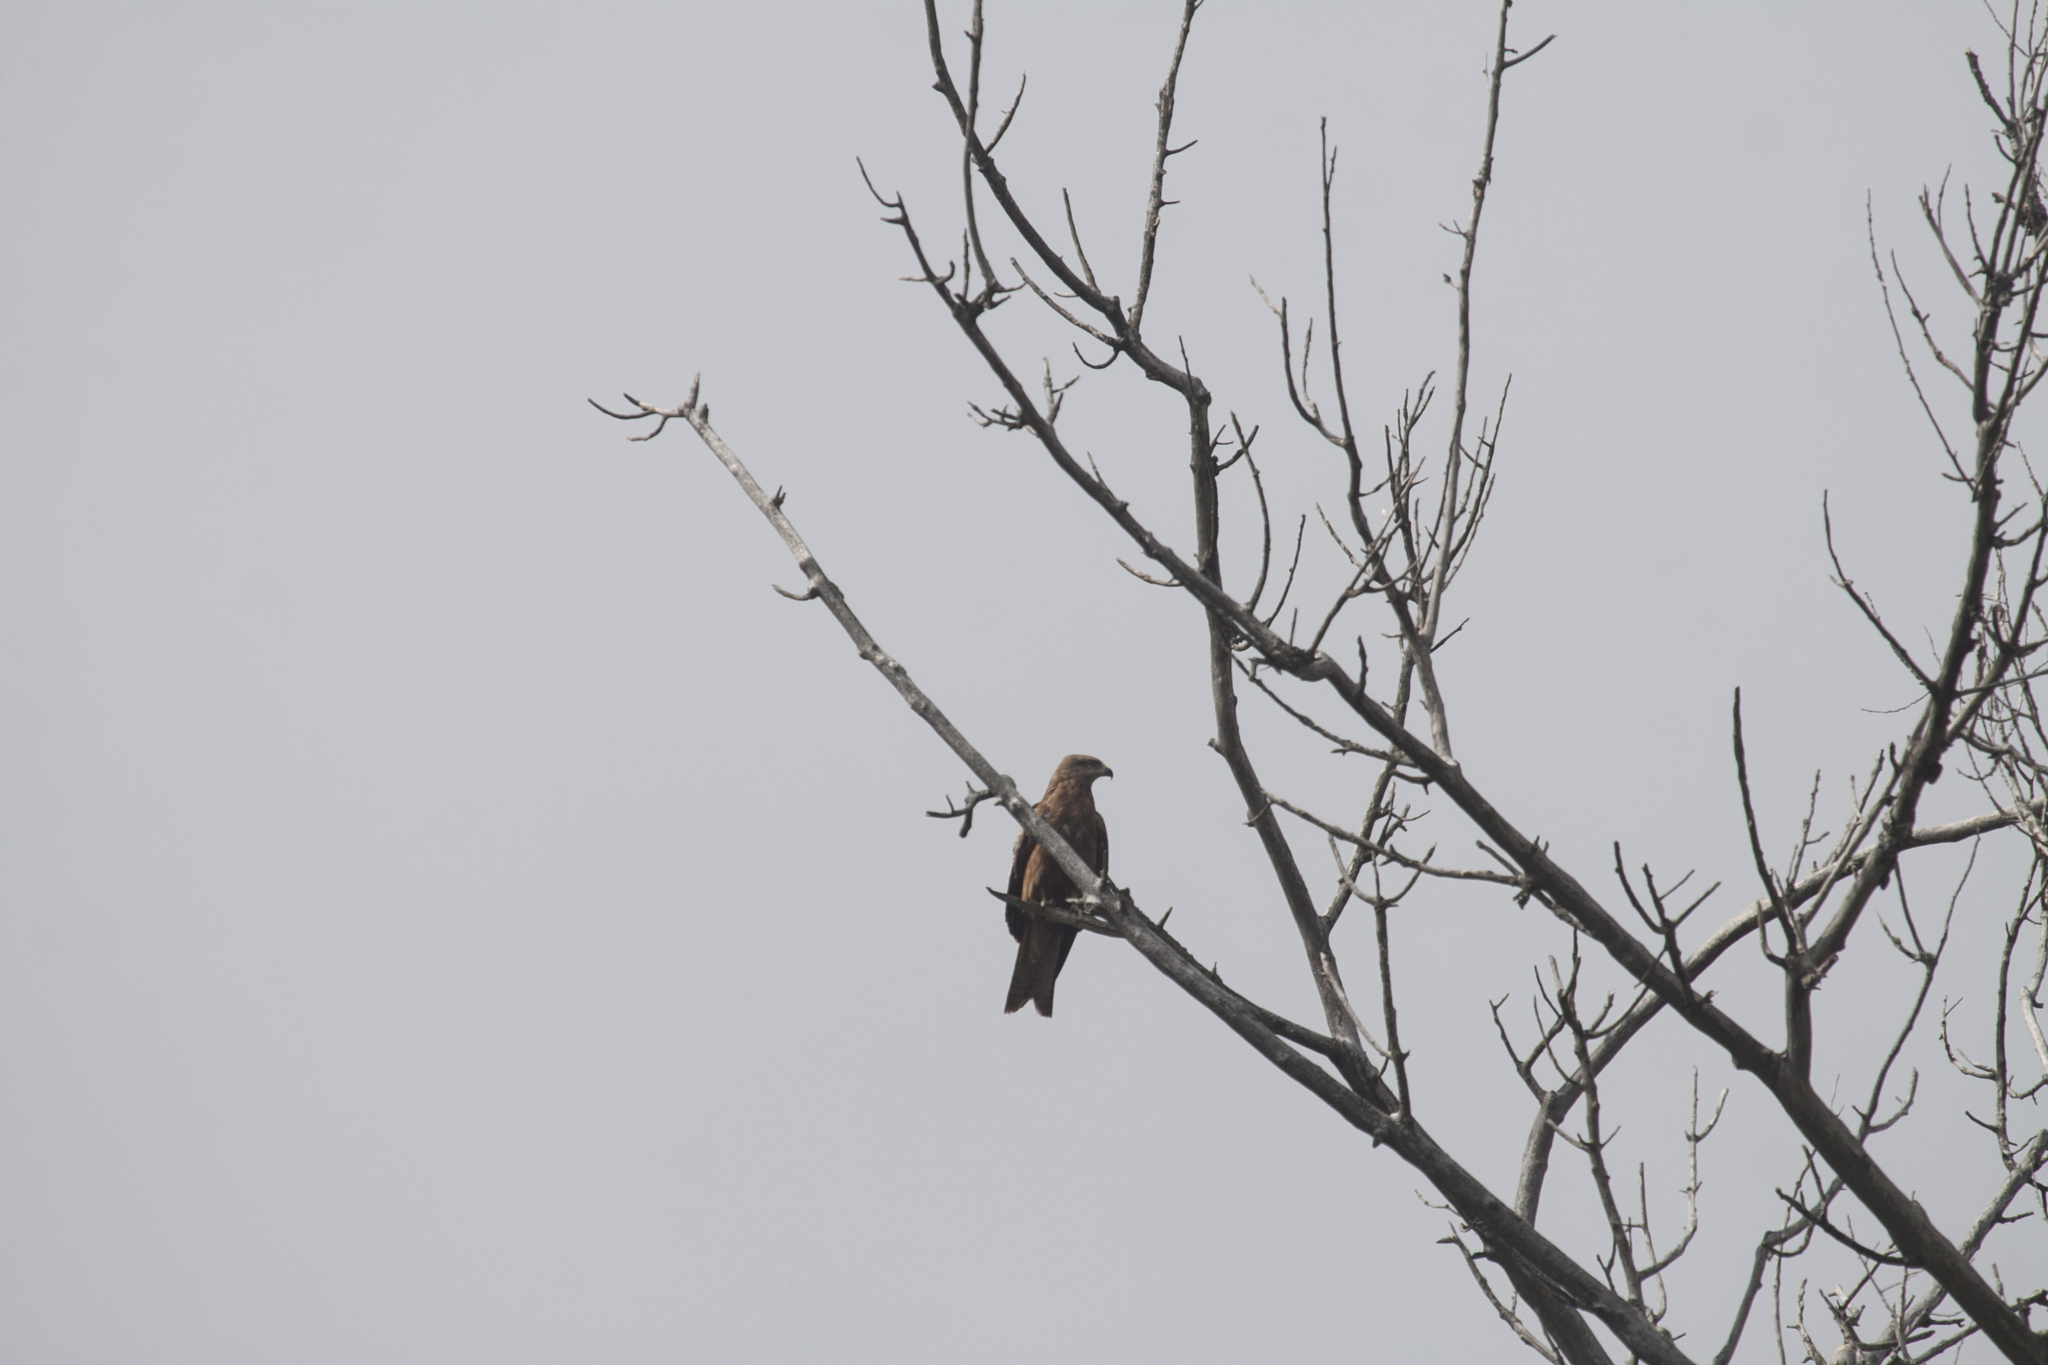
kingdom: Animalia
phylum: Chordata
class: Aves
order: Accipitriformes
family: Accipitridae
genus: Milvus
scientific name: Milvus migrans
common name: Black kite
